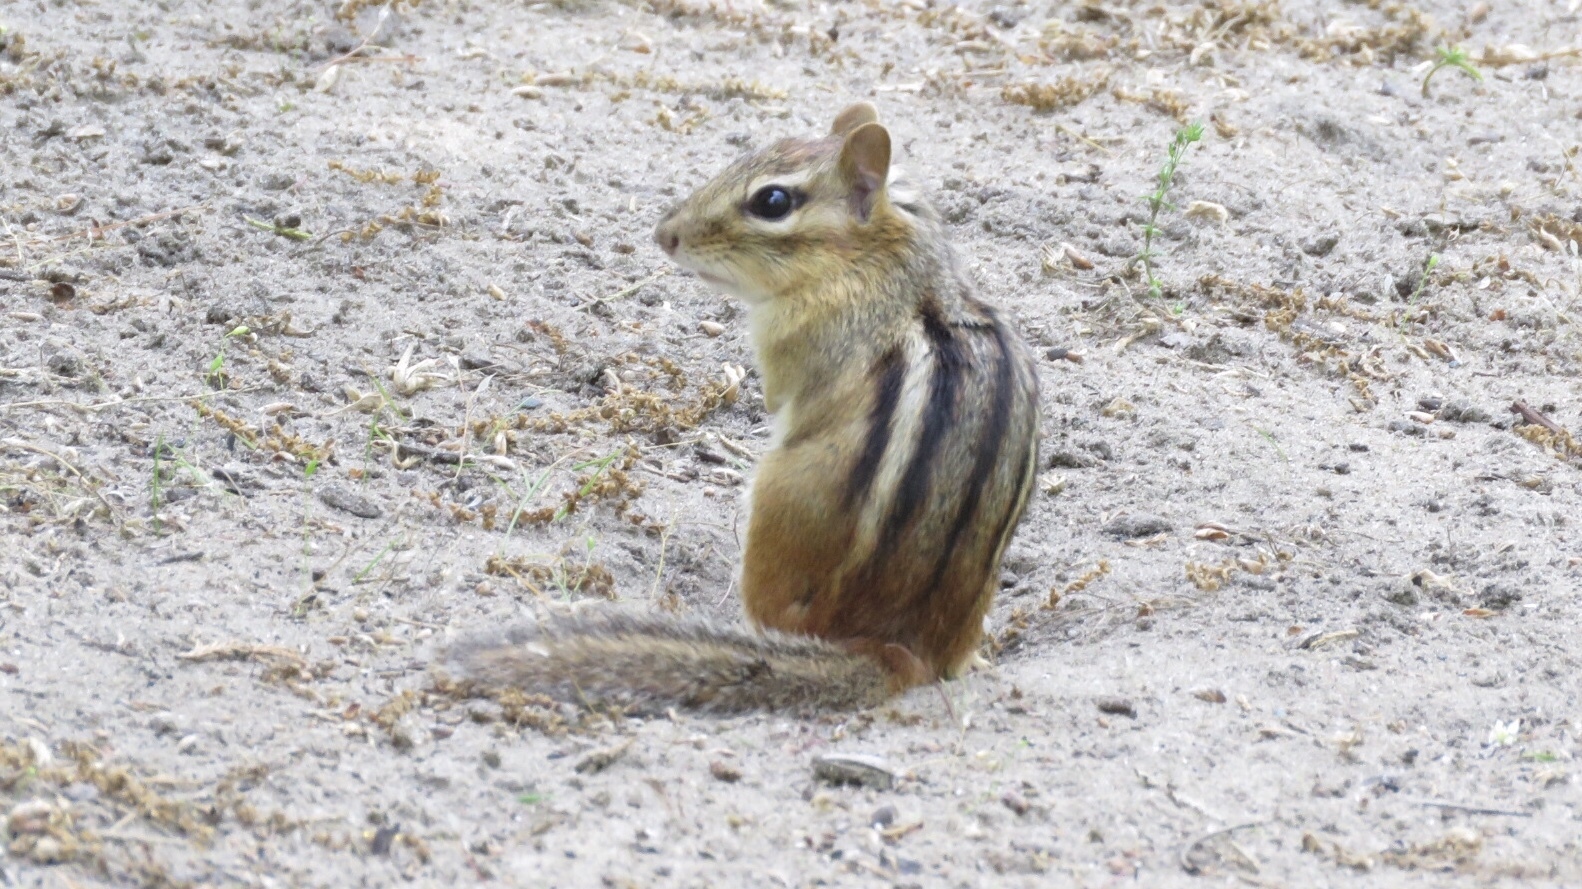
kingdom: Animalia
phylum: Chordata
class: Mammalia
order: Rodentia
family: Sciuridae
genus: Tamias
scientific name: Tamias striatus
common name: Eastern chipmunk
